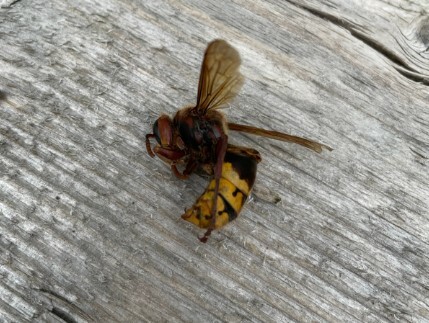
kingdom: Animalia
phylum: Arthropoda
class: Insecta
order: Hymenoptera
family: Vespidae
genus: Vespa
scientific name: Vespa crabro
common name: Hornet
